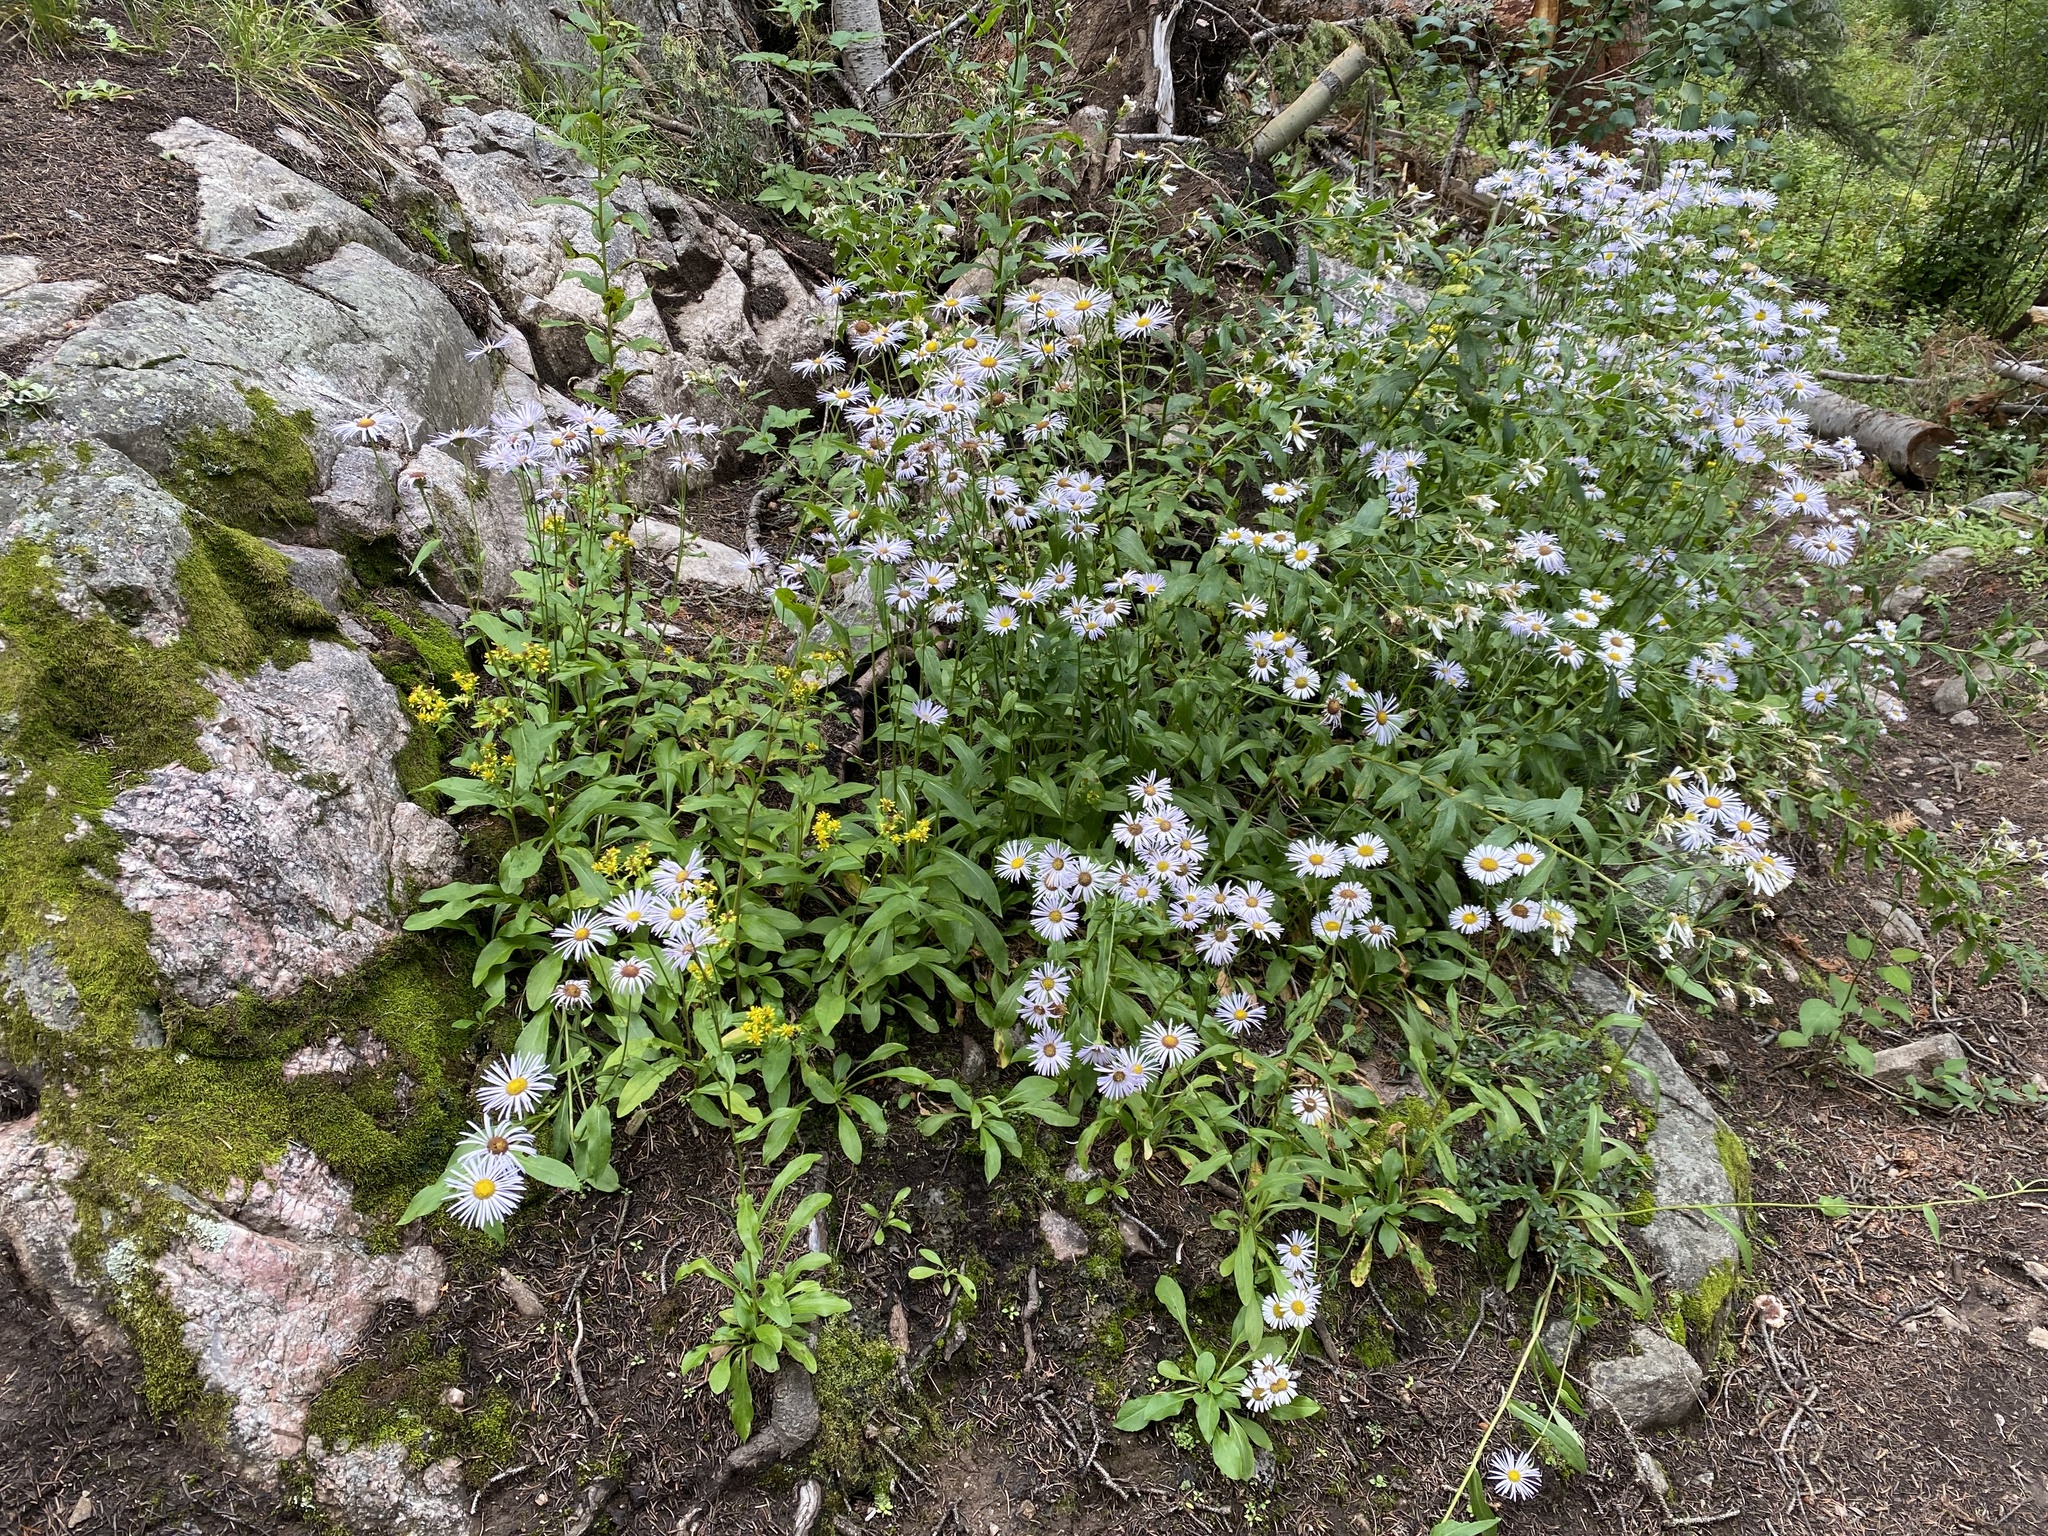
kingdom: Plantae
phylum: Tracheophyta
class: Magnoliopsida
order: Asterales
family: Asteraceae
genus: Erigeron
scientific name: Erigeron speciosus
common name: Aspen fleabane
